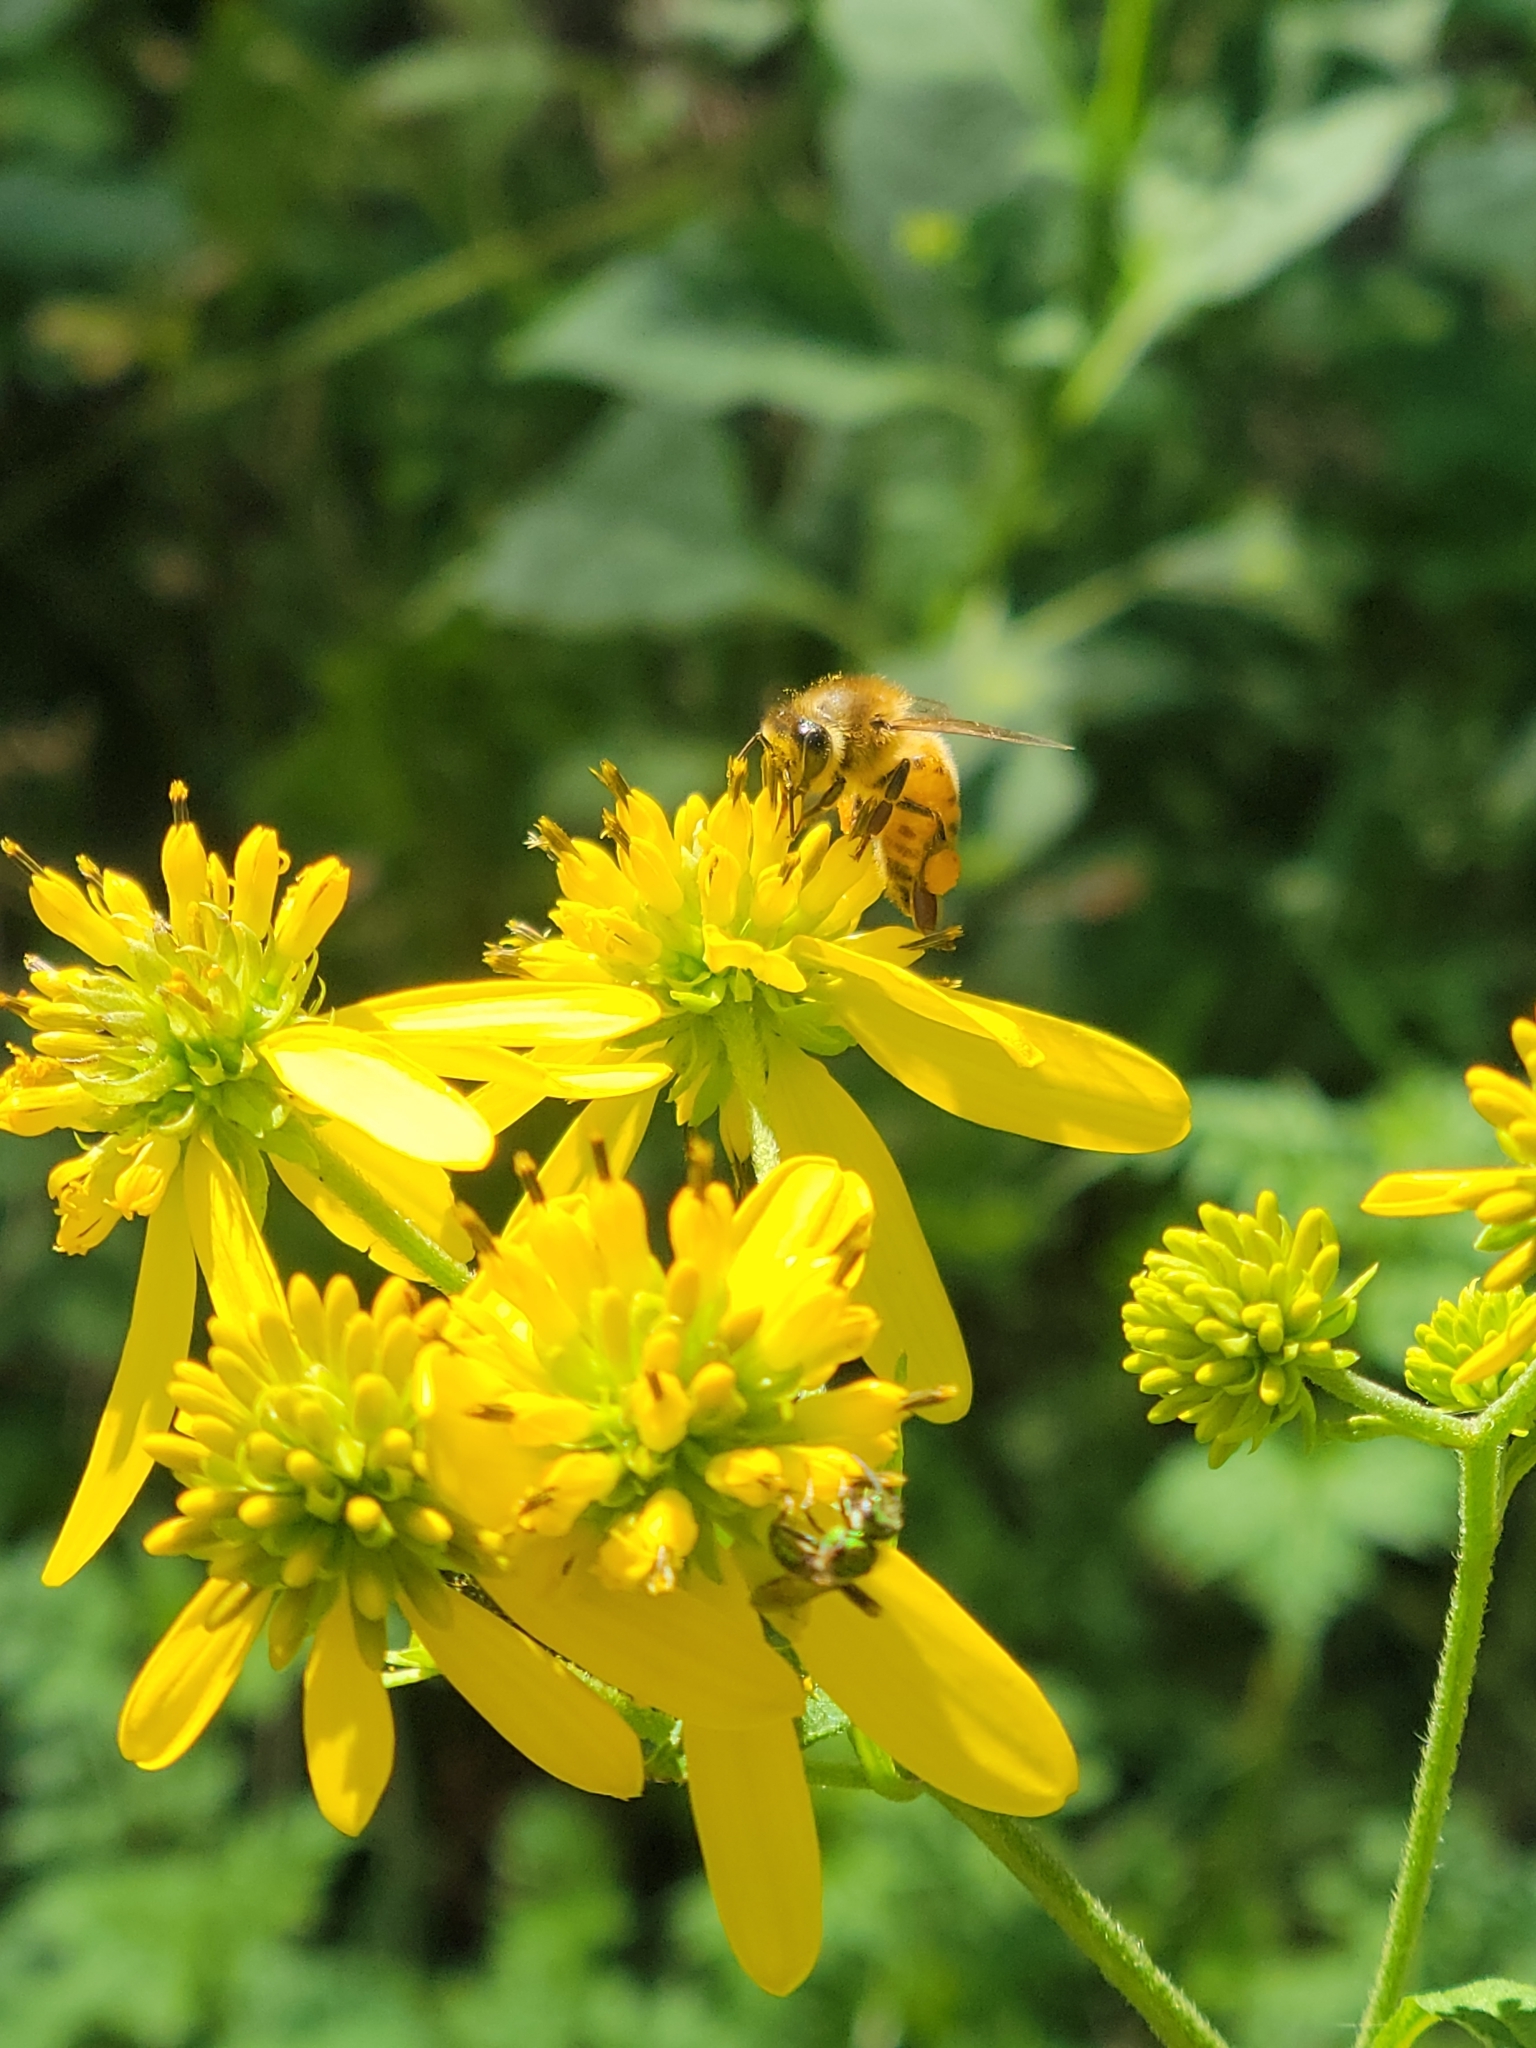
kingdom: Animalia
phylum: Arthropoda
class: Insecta
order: Hymenoptera
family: Apidae
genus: Apis
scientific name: Apis mellifera
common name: Honey bee
